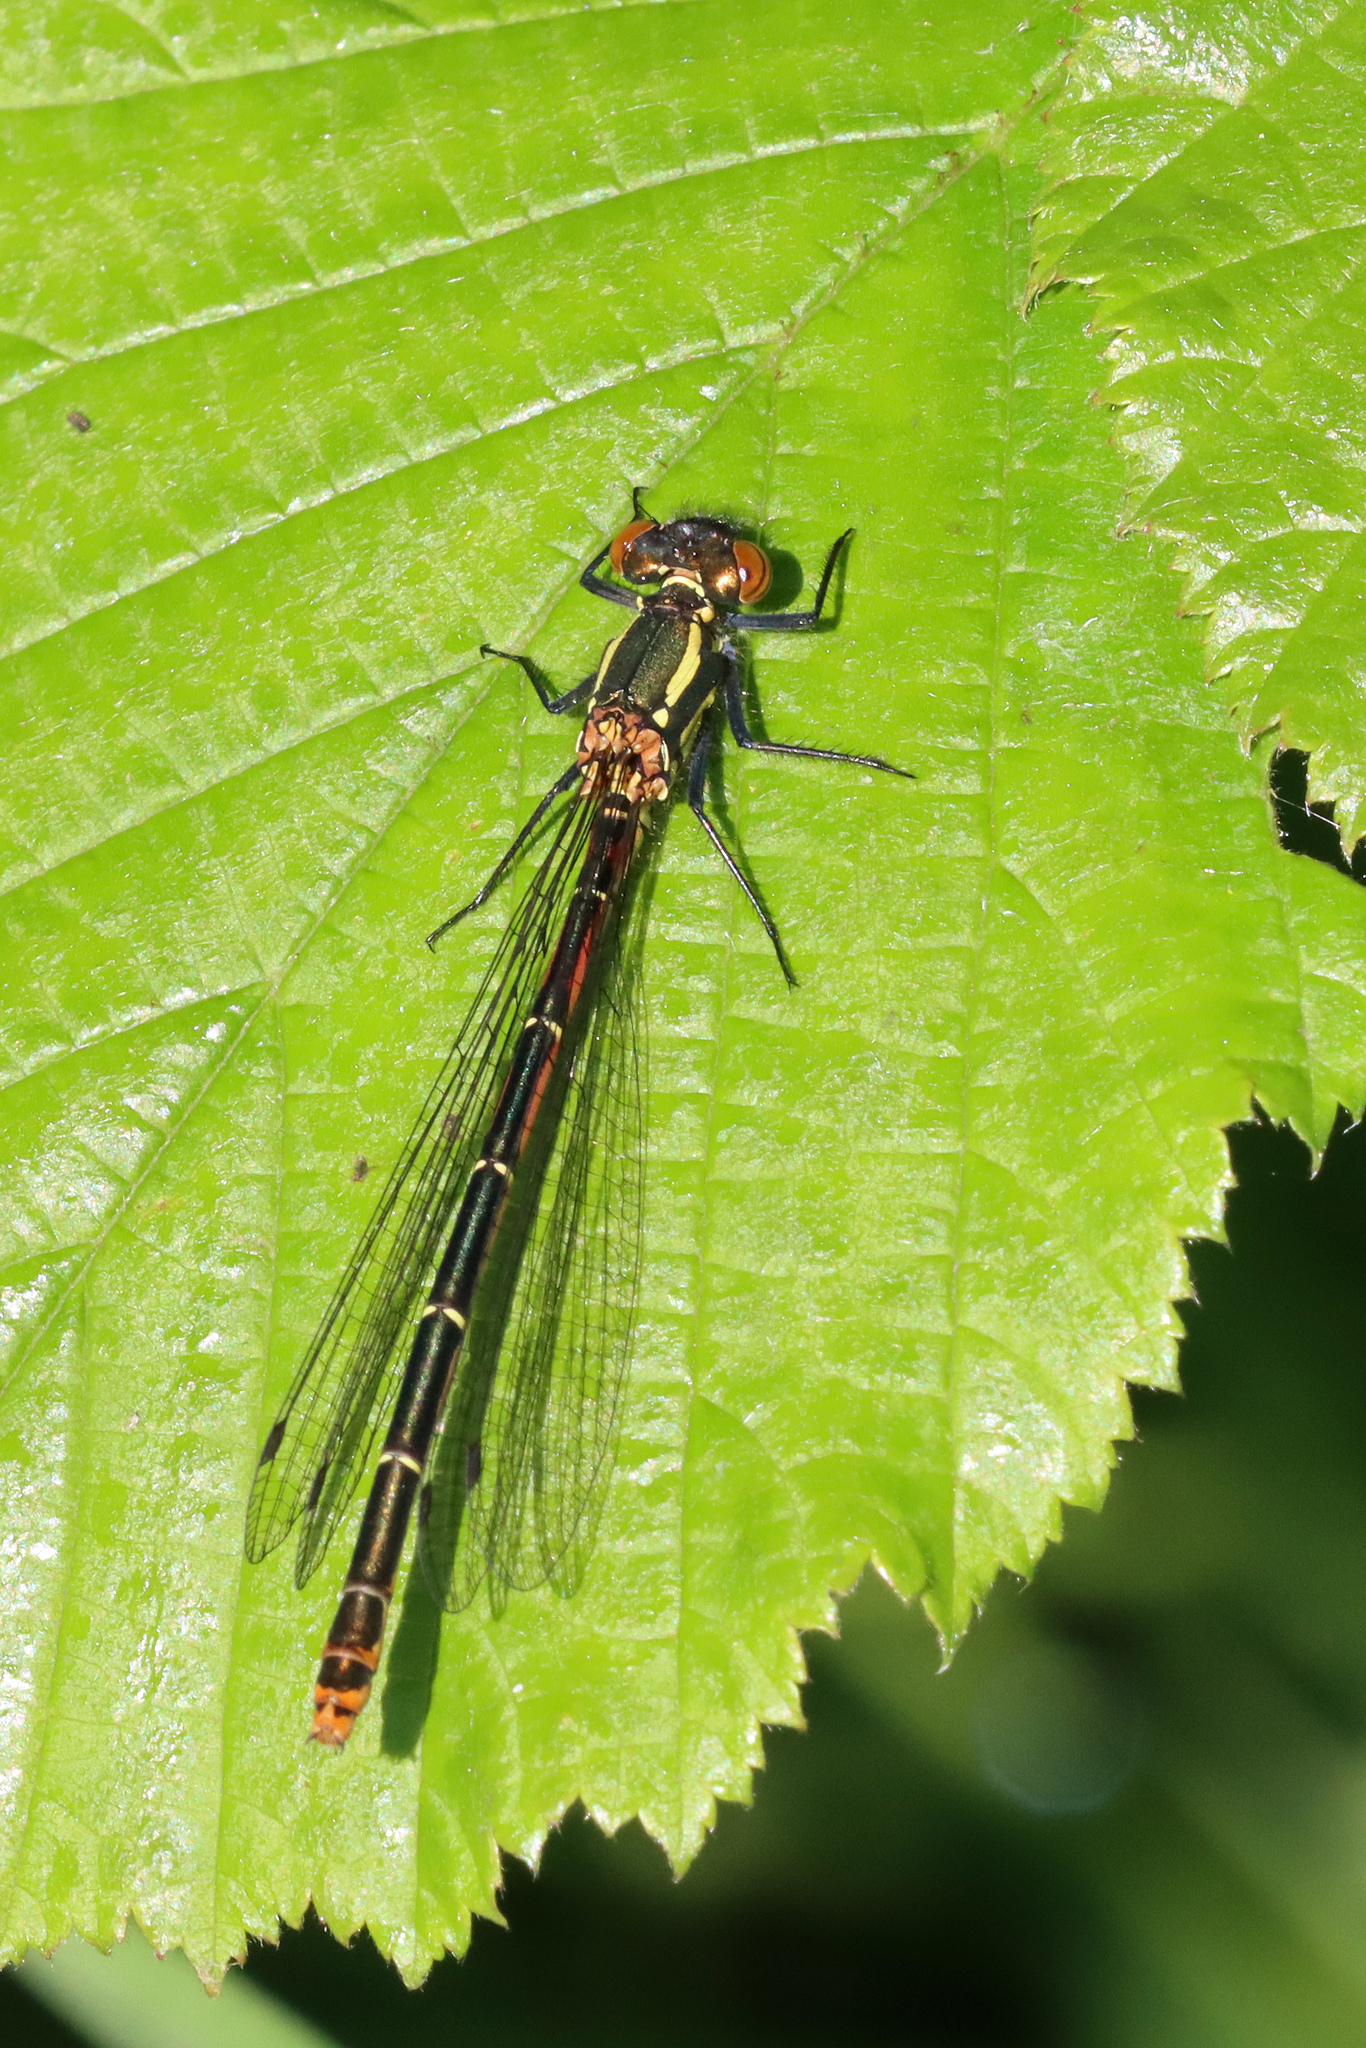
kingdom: Animalia
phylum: Arthropoda
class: Insecta
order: Odonata
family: Coenagrionidae
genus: Pyrrhosoma
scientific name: Pyrrhosoma nymphula
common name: Large red damsel
